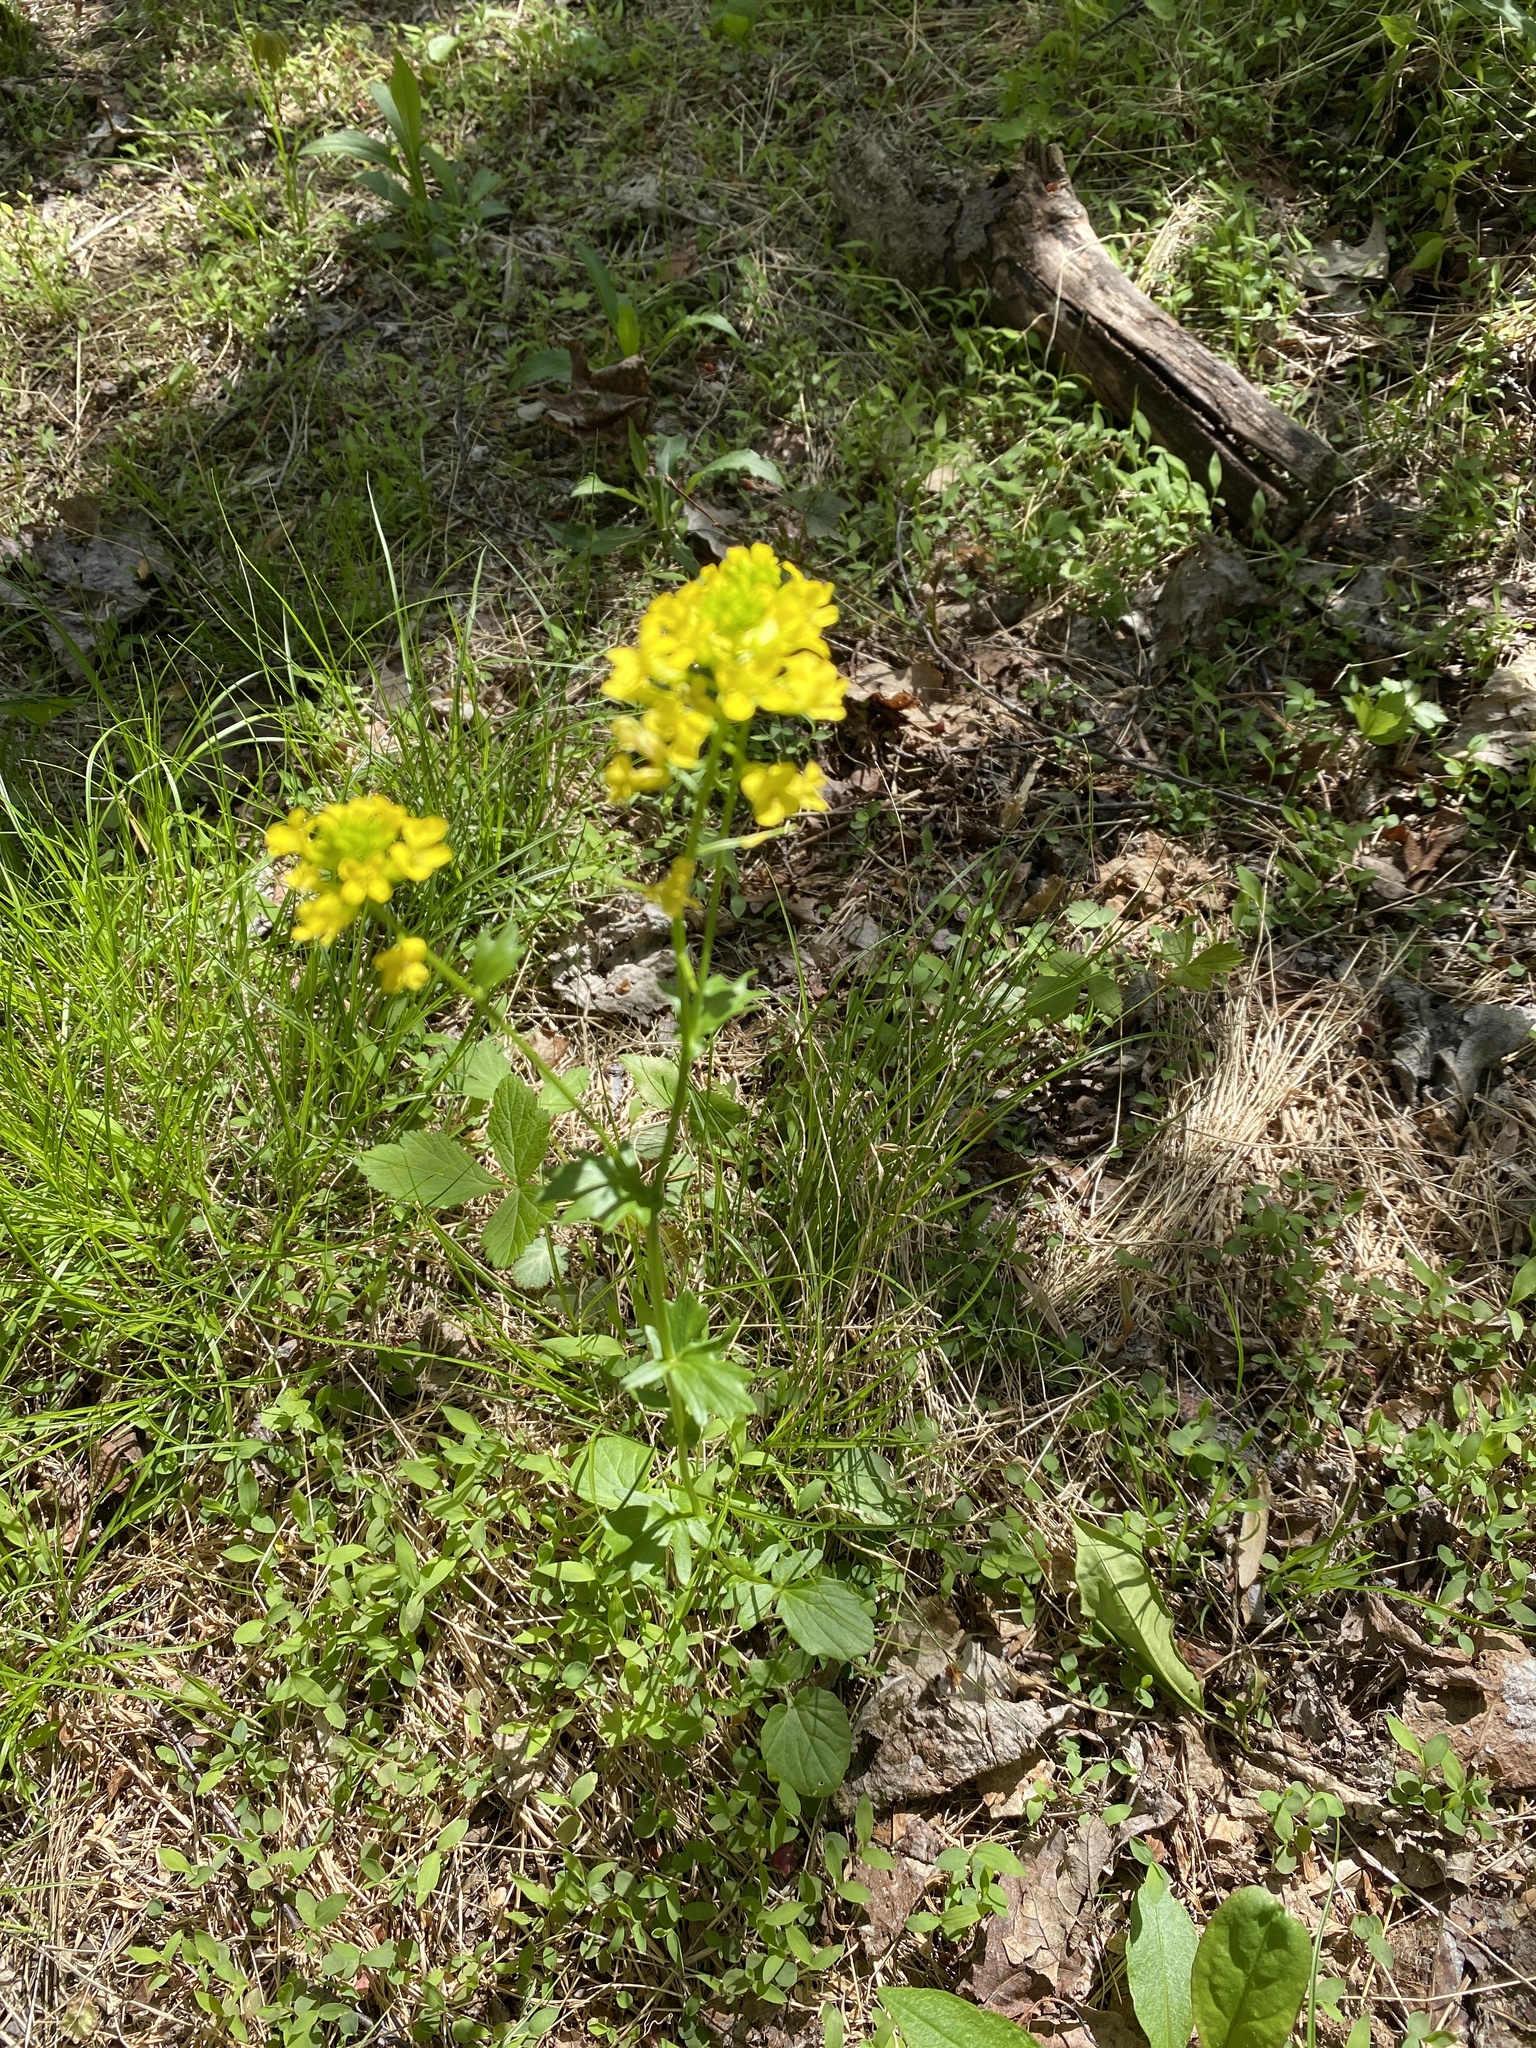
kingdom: Plantae
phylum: Tracheophyta
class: Magnoliopsida
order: Brassicales
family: Brassicaceae
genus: Barbarea
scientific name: Barbarea vulgaris
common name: Cressy-greens
